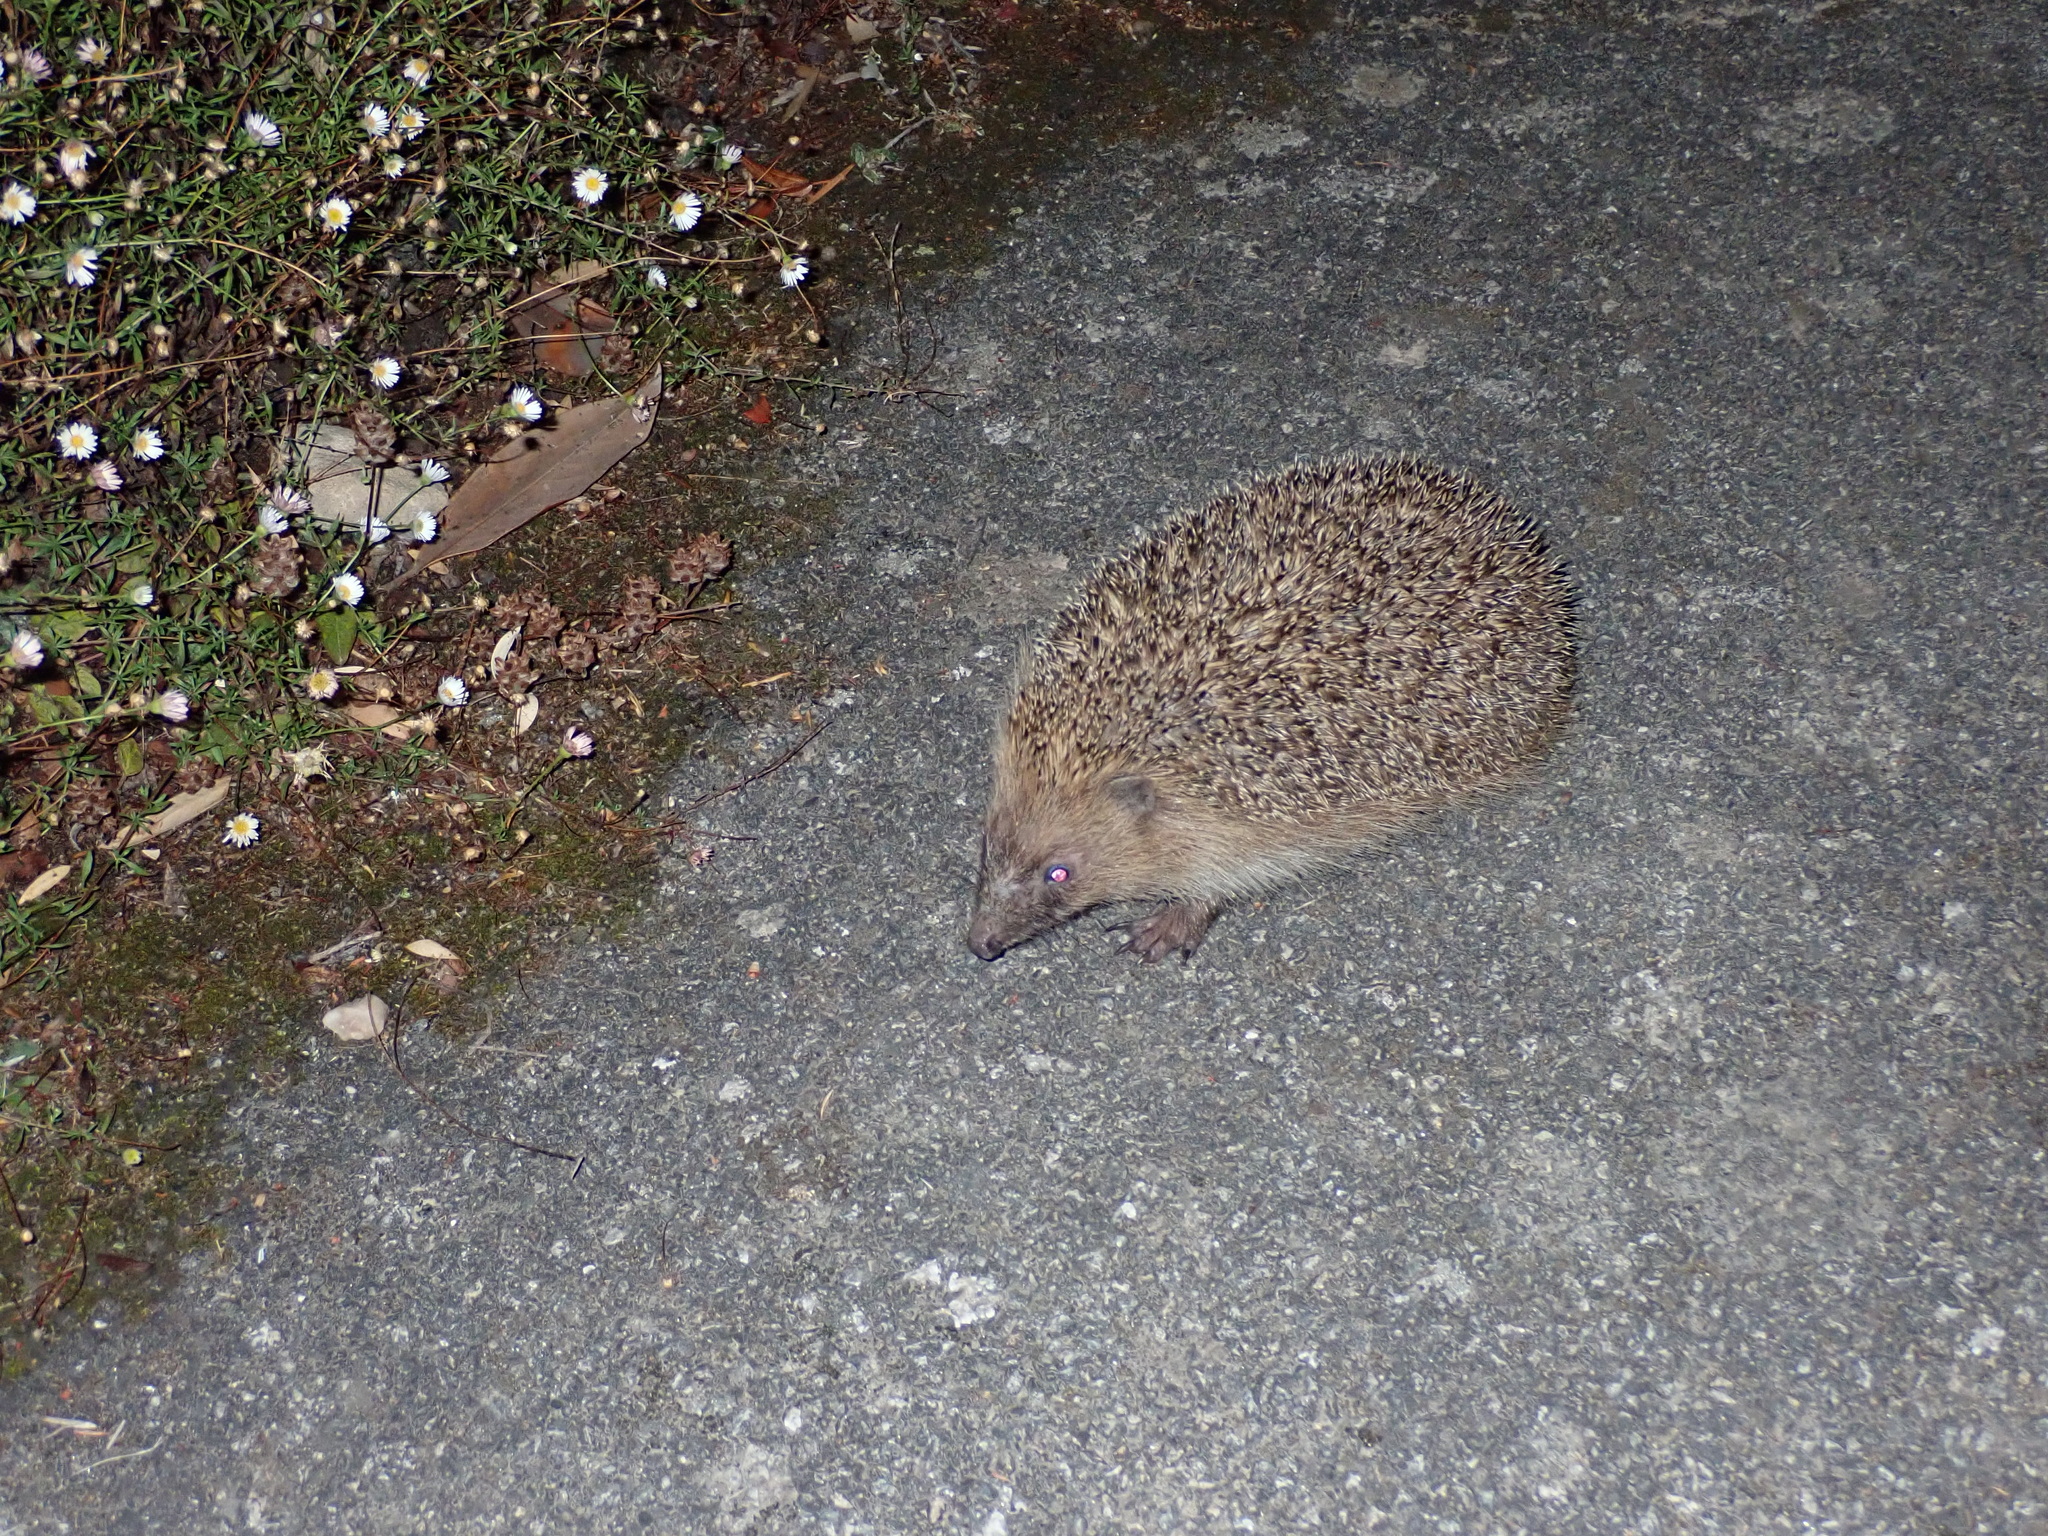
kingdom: Animalia
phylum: Chordata
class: Mammalia
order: Erinaceomorpha
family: Erinaceidae
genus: Erinaceus
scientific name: Erinaceus europaeus
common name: West european hedgehog
